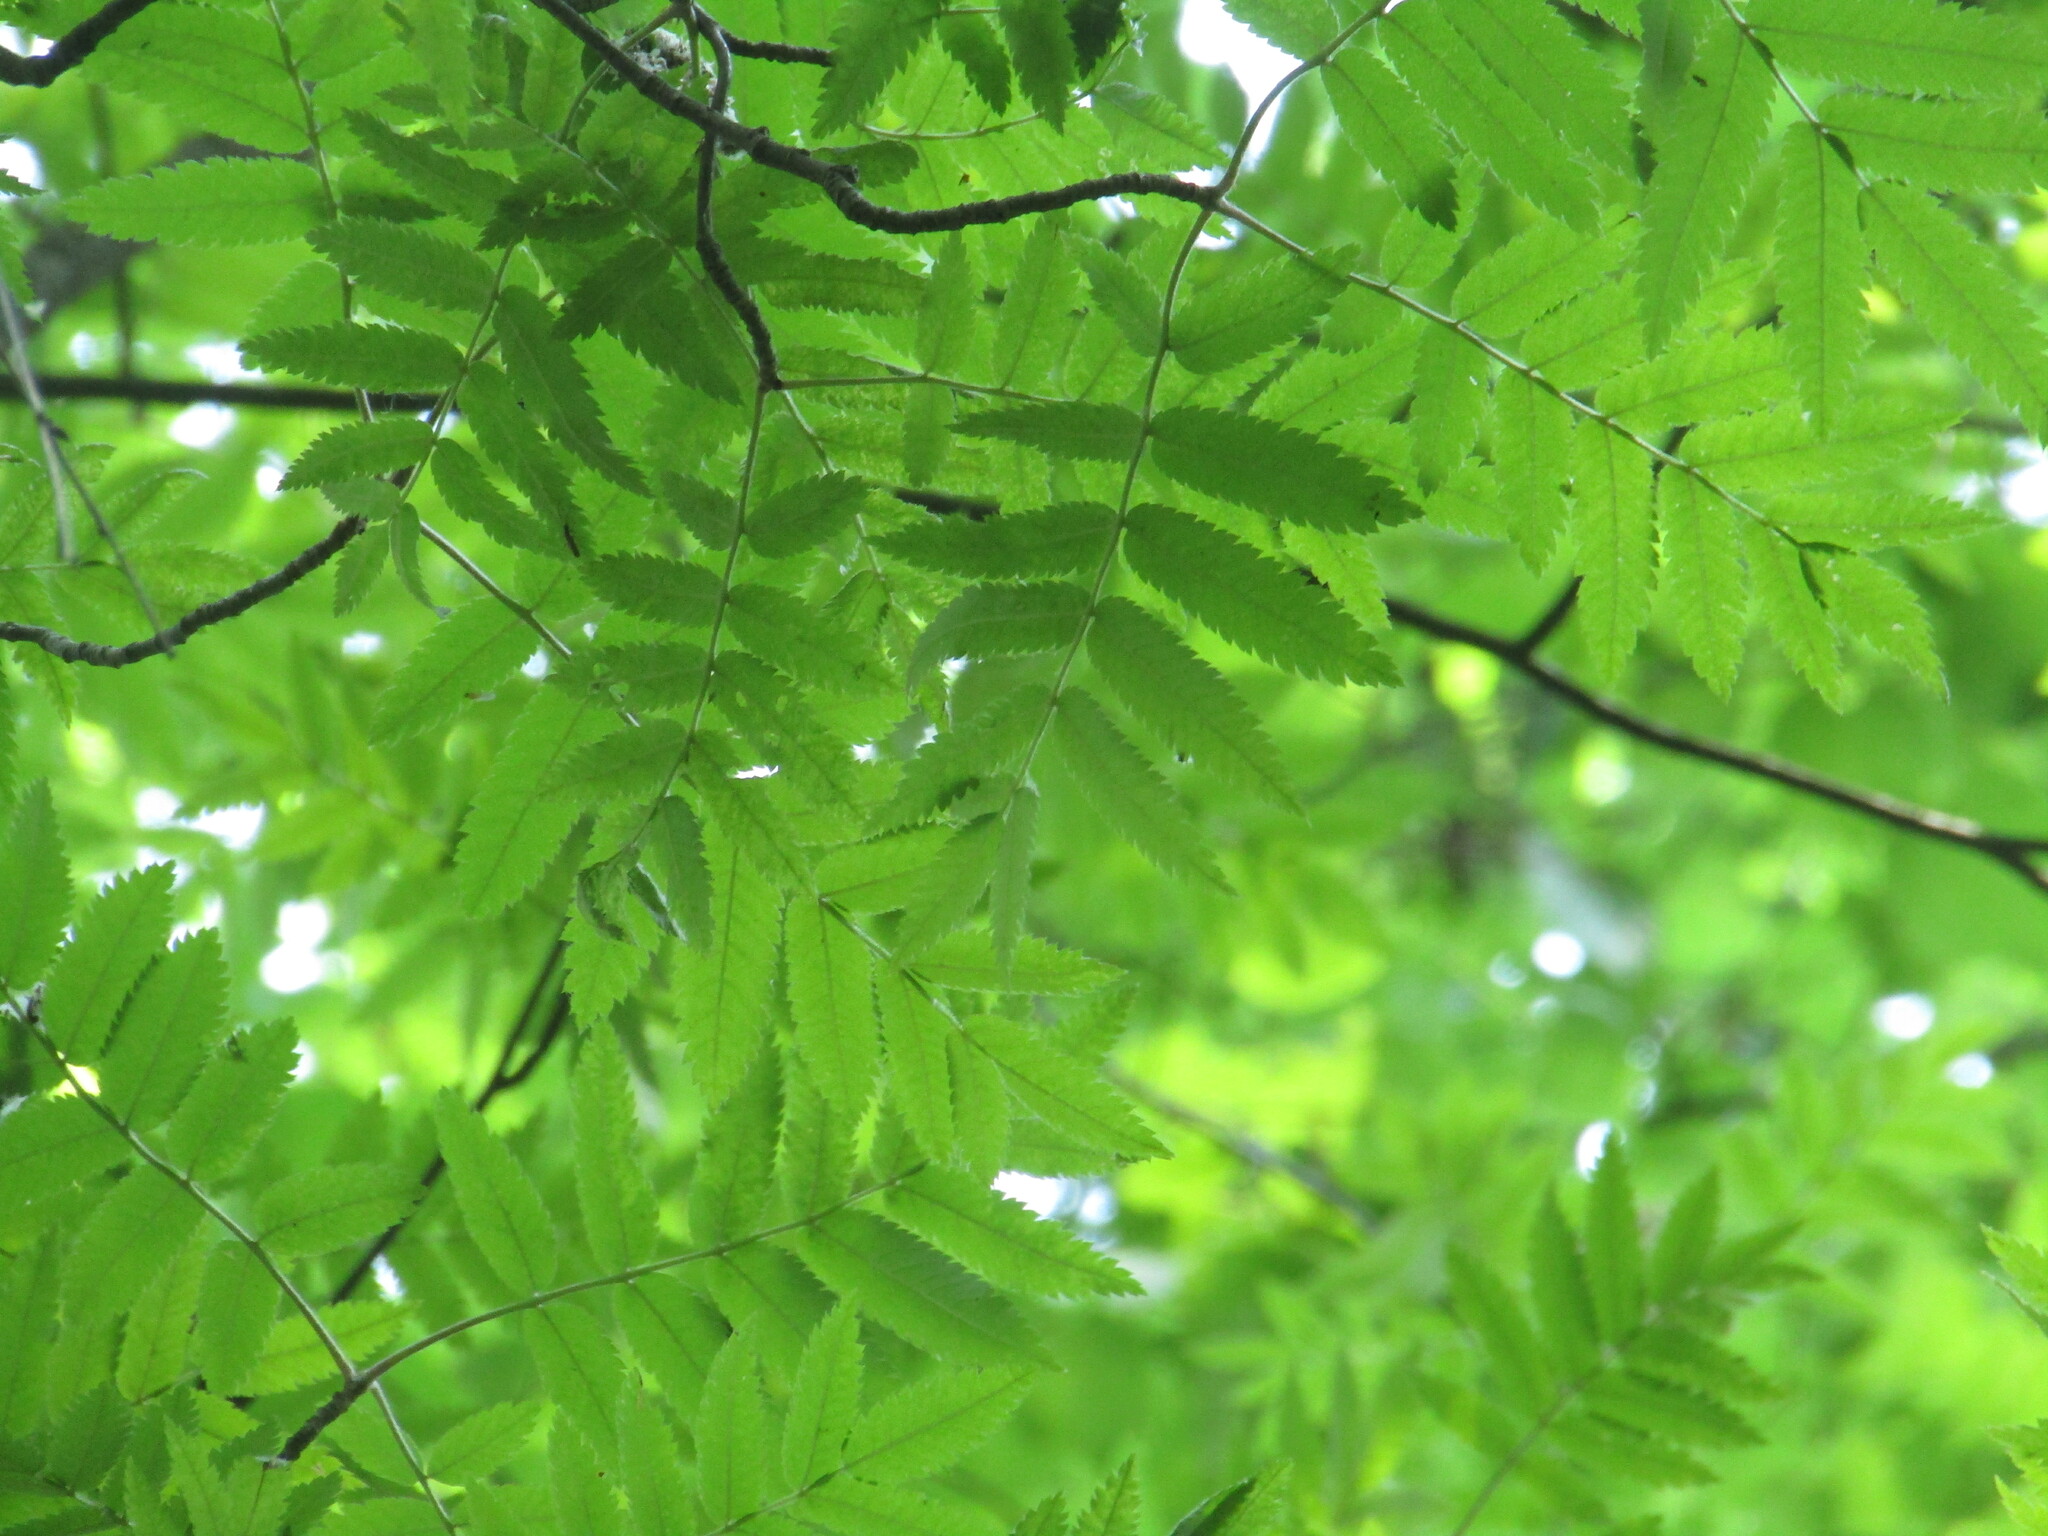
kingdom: Plantae
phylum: Tracheophyta
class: Magnoliopsida
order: Rosales
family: Rosaceae
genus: Sorbus
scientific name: Sorbus aucuparia
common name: Rowan
